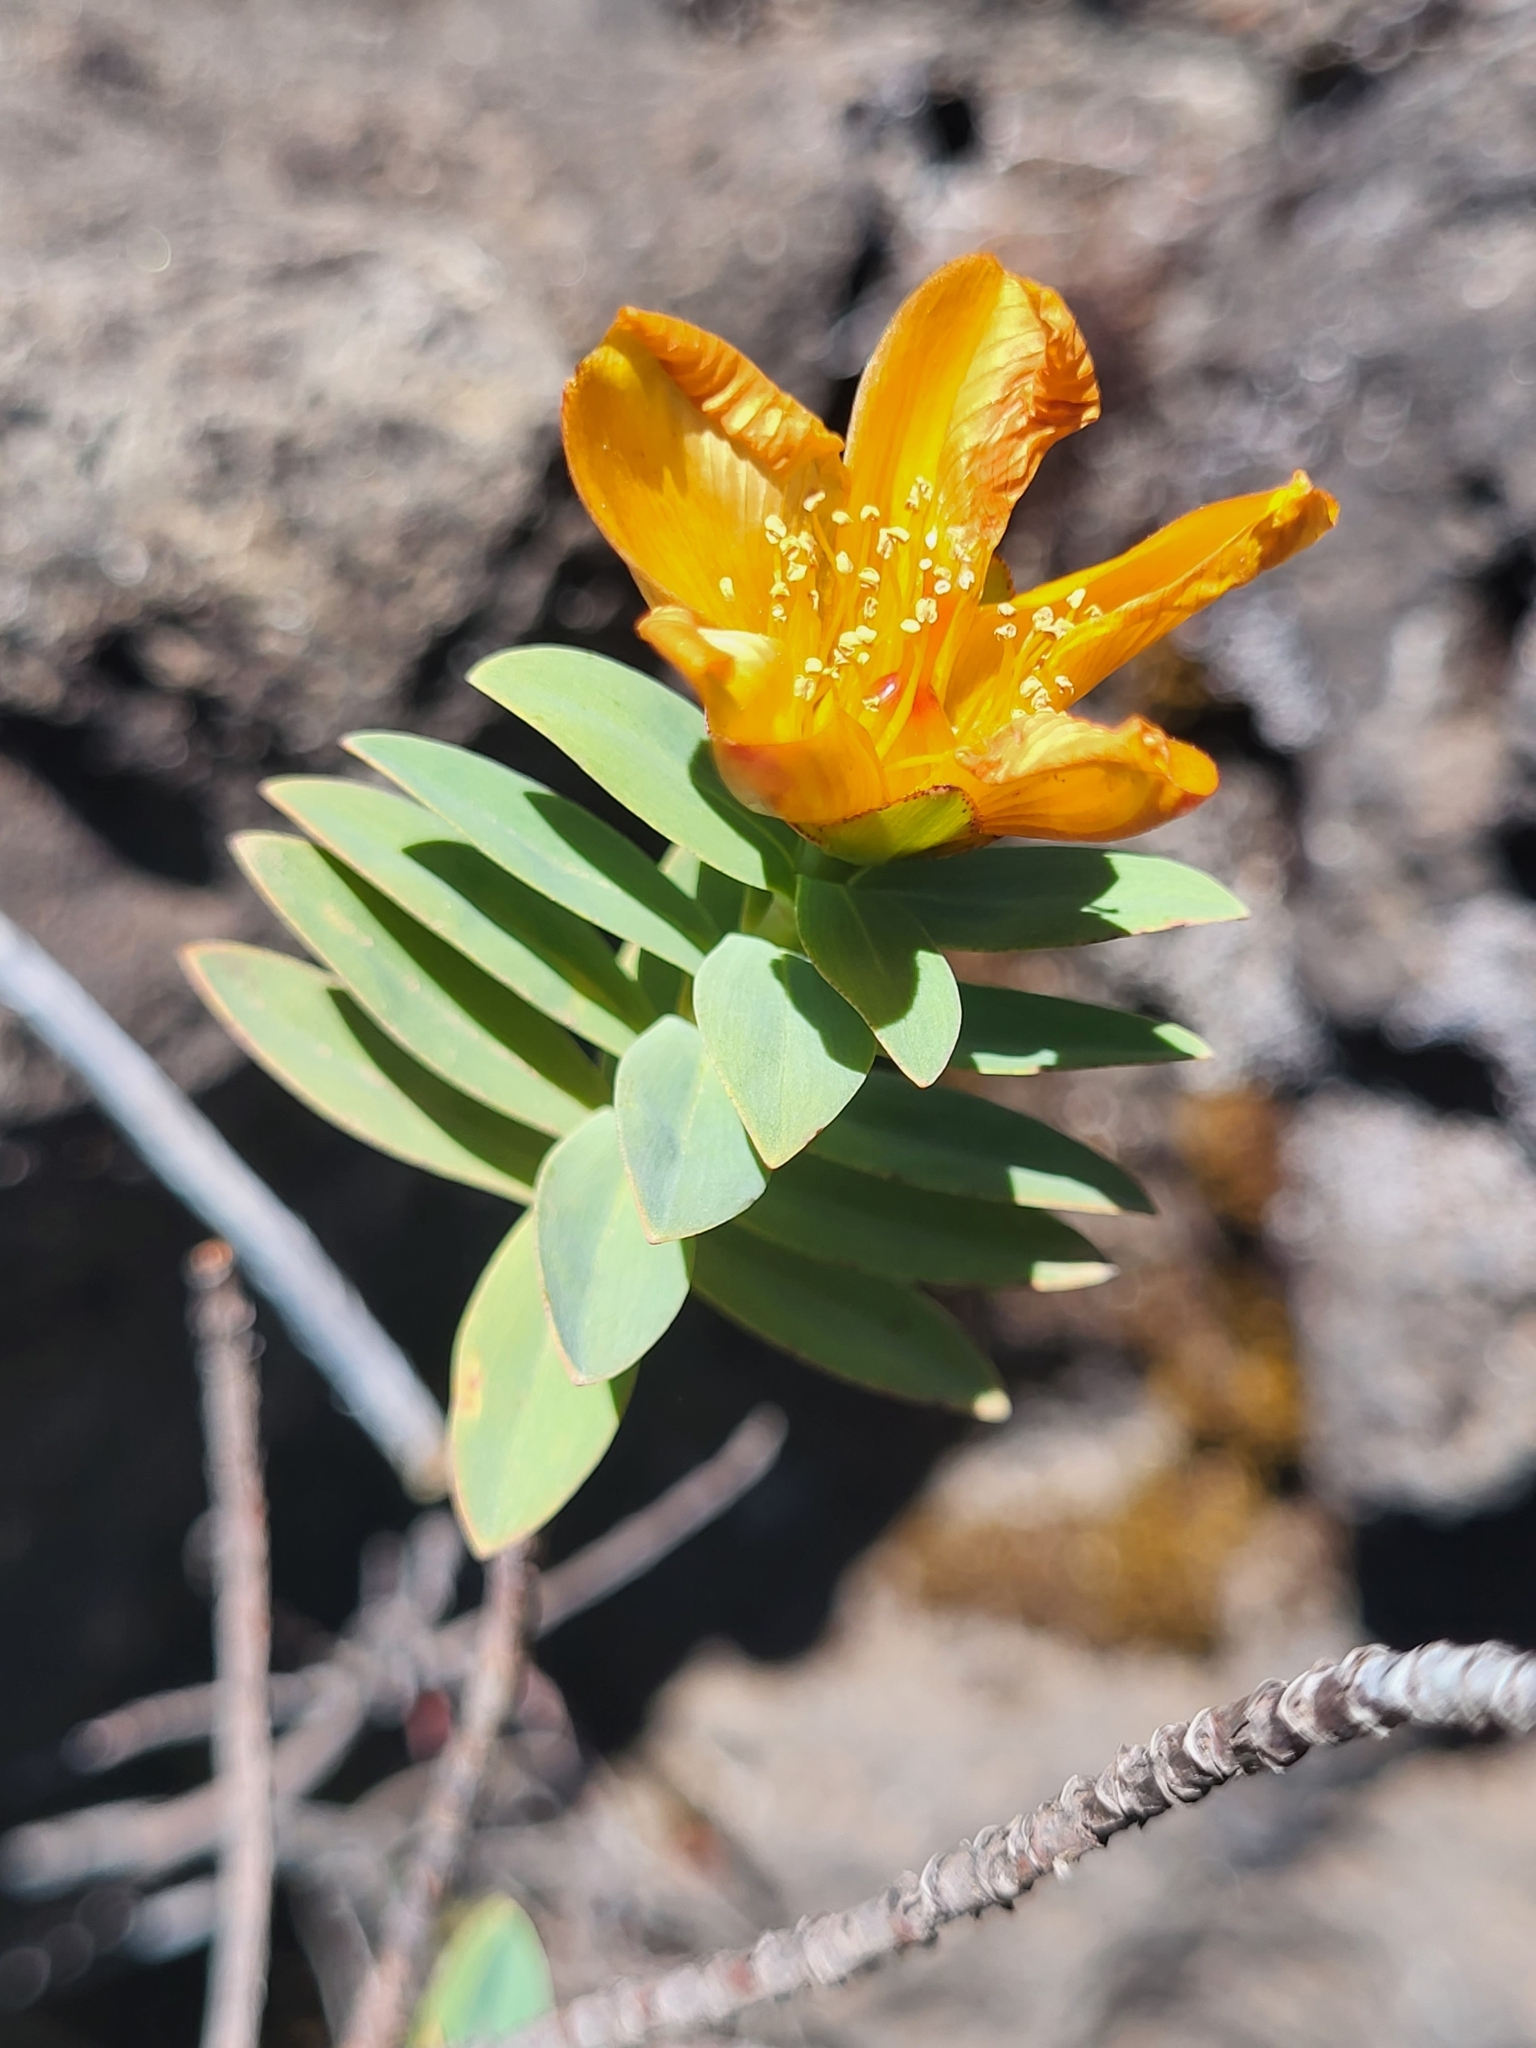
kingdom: Plantae
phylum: Tracheophyta
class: Magnoliopsida
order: Malpighiales
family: Hypericaceae
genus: Hypericum
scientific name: Hypericum lanceolatum
